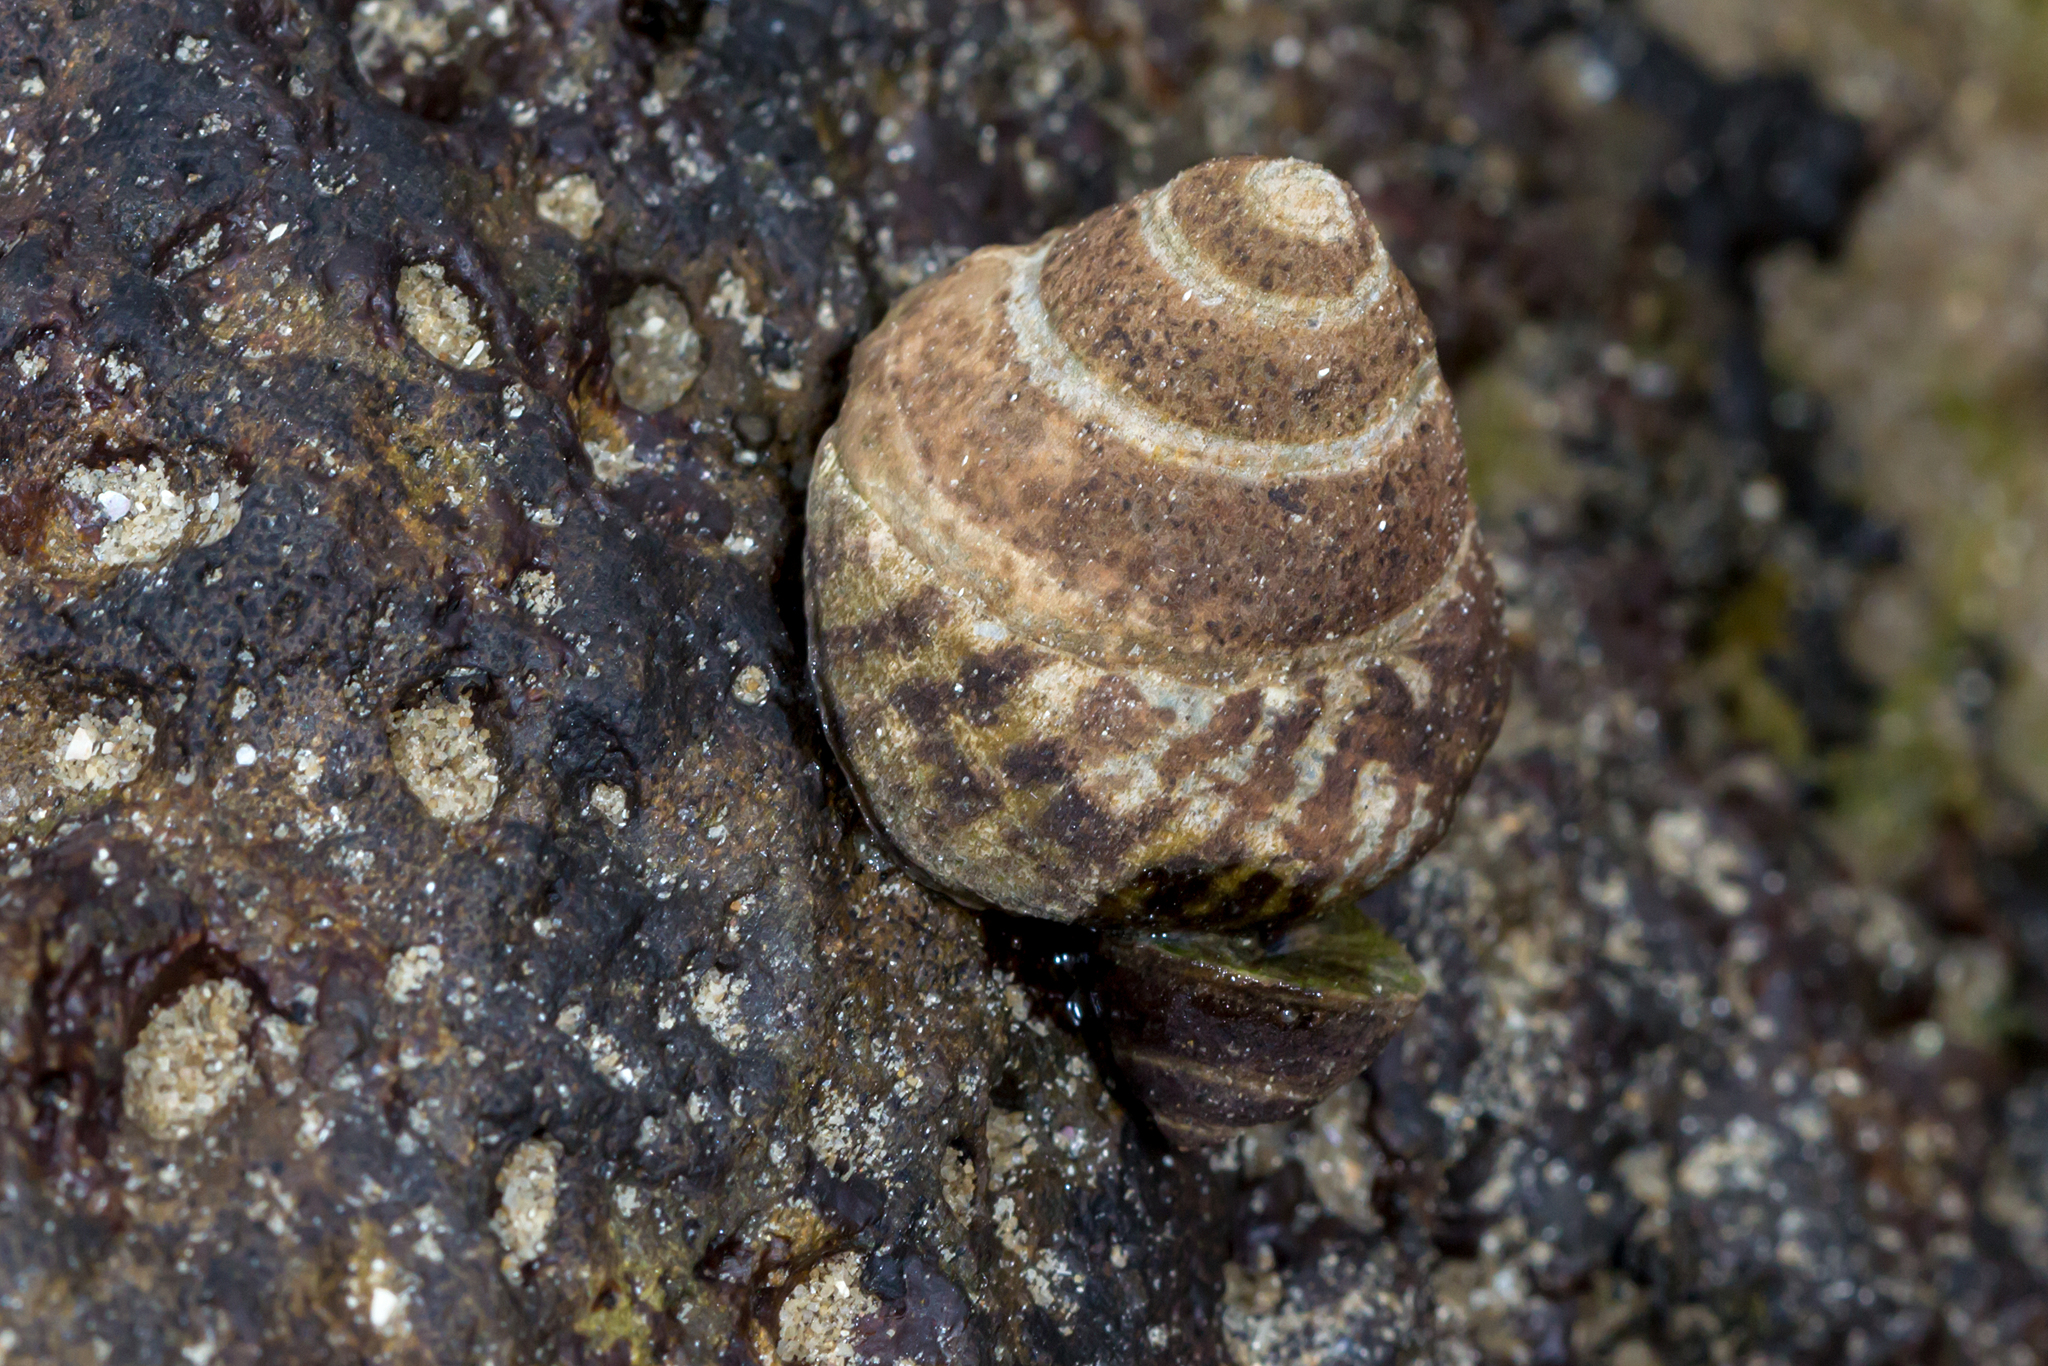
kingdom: Animalia
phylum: Mollusca
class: Gastropoda
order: Littorinimorpha
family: Littorinidae
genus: Bembicium
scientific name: Bembicium nanum
